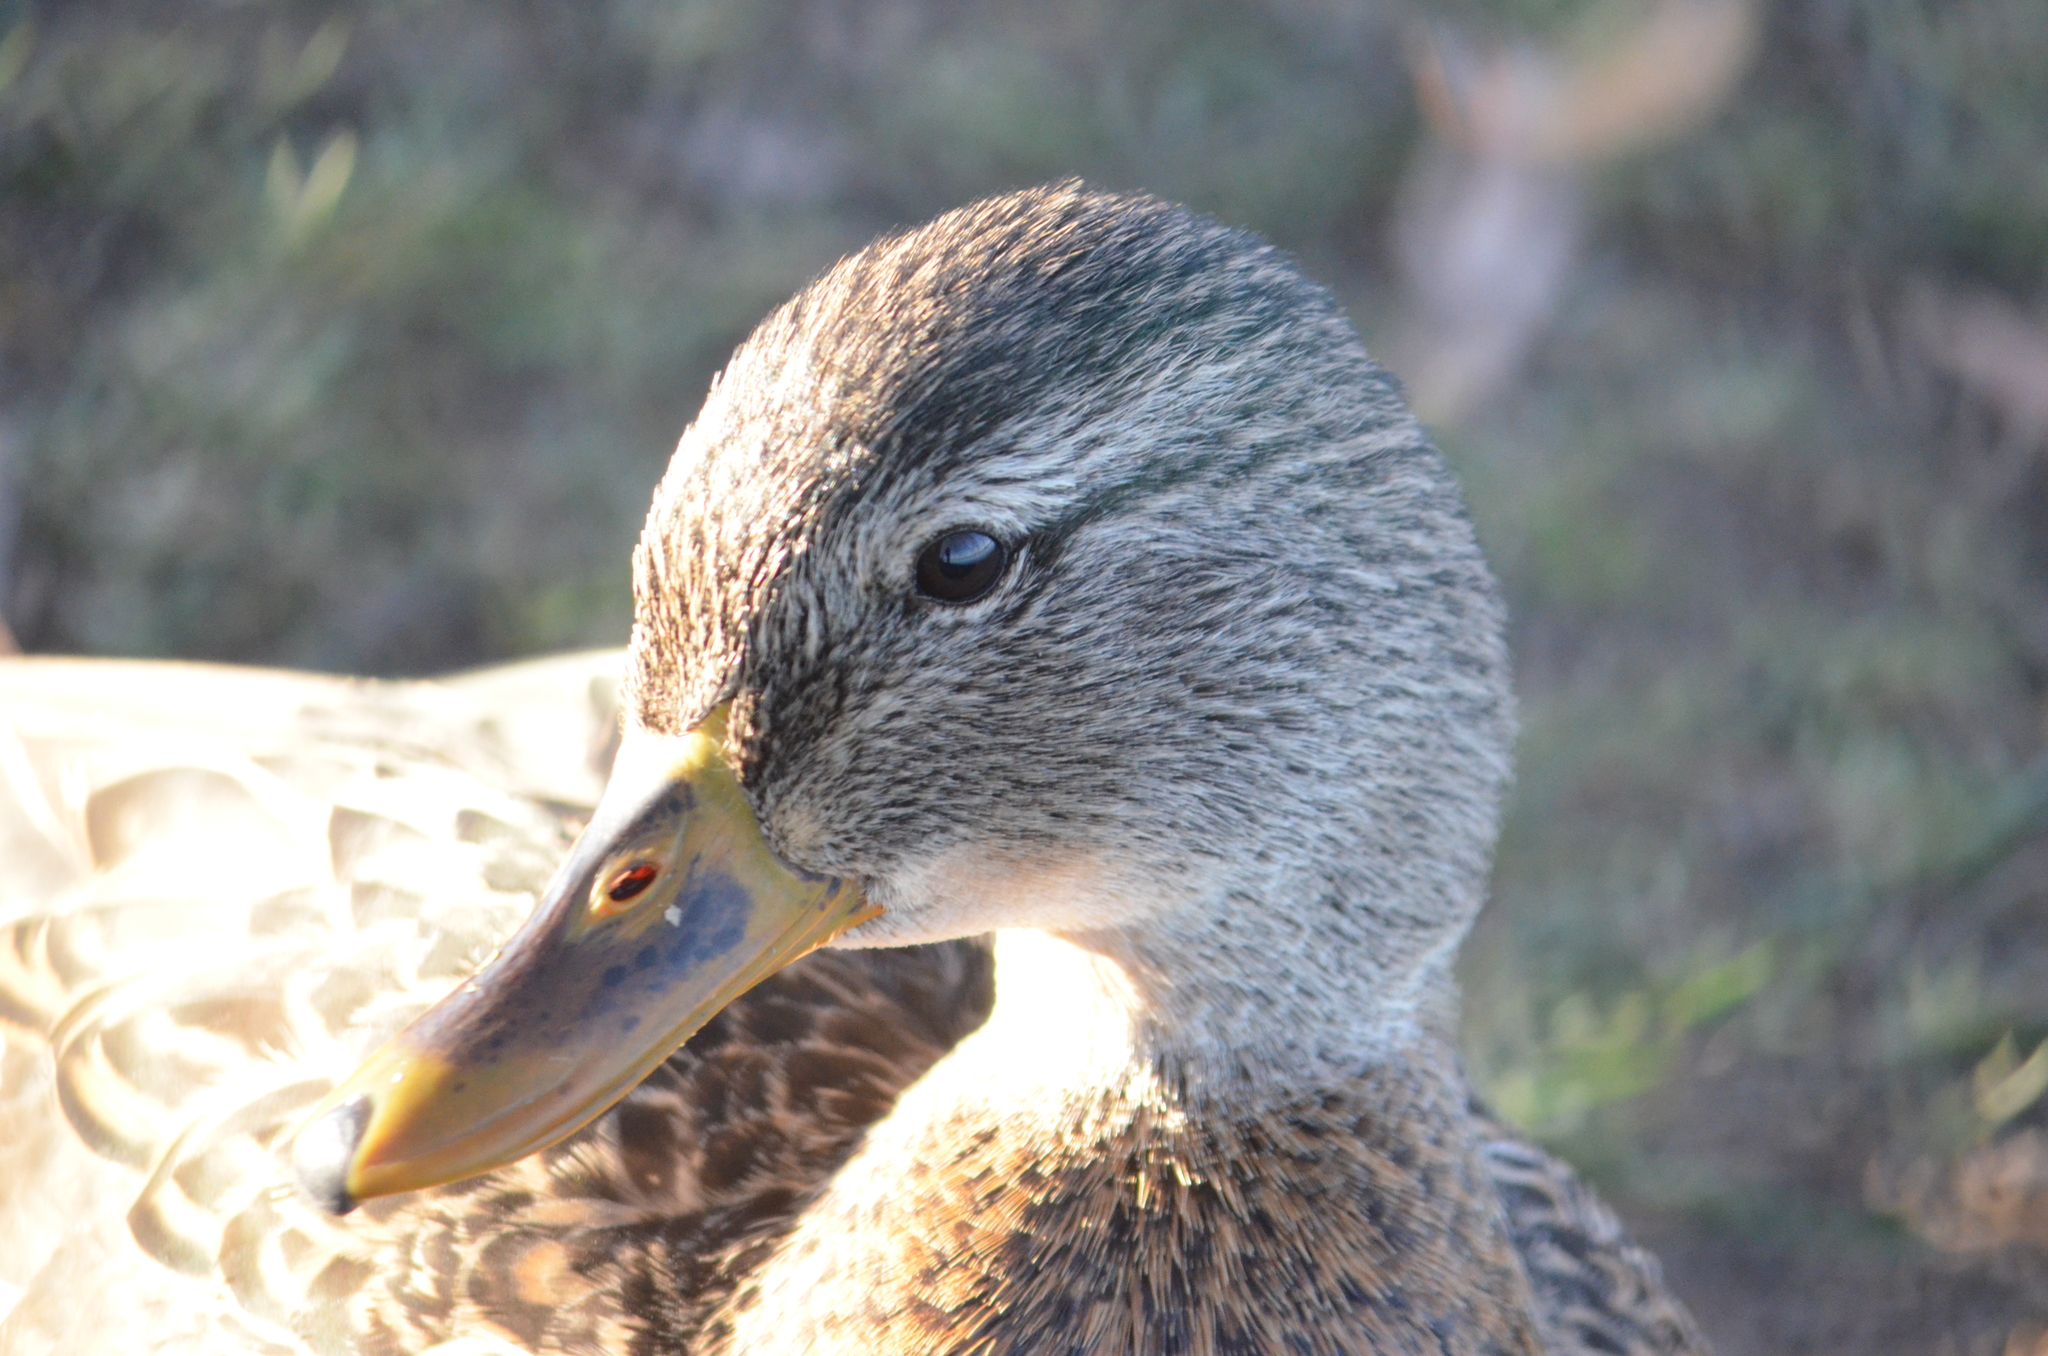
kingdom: Animalia
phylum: Chordata
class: Aves
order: Anseriformes
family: Anatidae
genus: Anas
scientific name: Anas platyrhynchos
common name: Mallard
